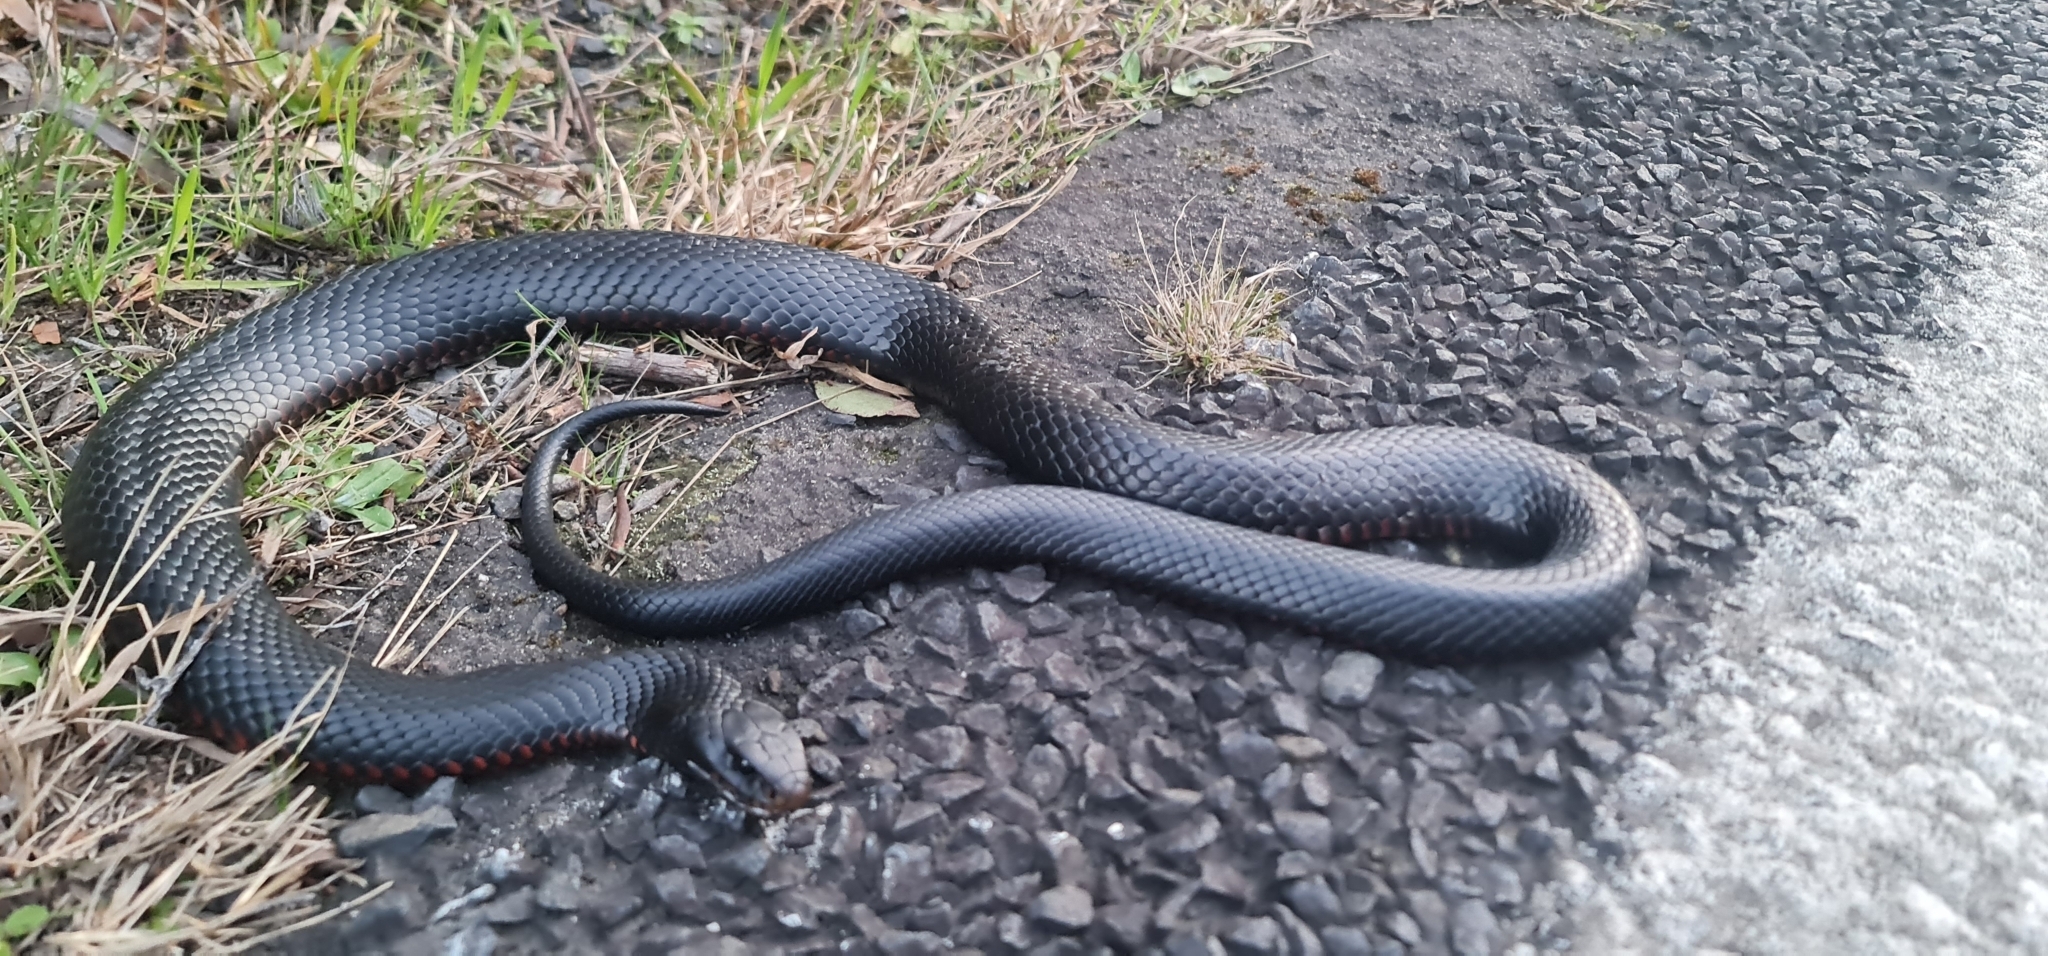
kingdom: Animalia
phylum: Chordata
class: Squamata
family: Elapidae
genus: Pseudechis
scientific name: Pseudechis porphyriacus
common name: Australian black snake
